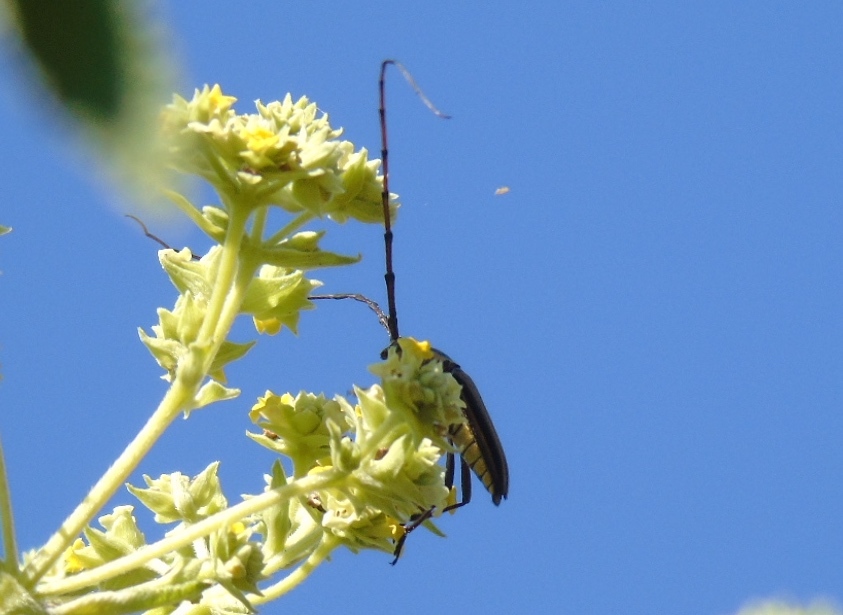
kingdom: Animalia
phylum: Arthropoda
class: Insecta
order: Coleoptera
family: Cerambycidae
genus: Sphaenothecus
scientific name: Sphaenothecus bilineatus
